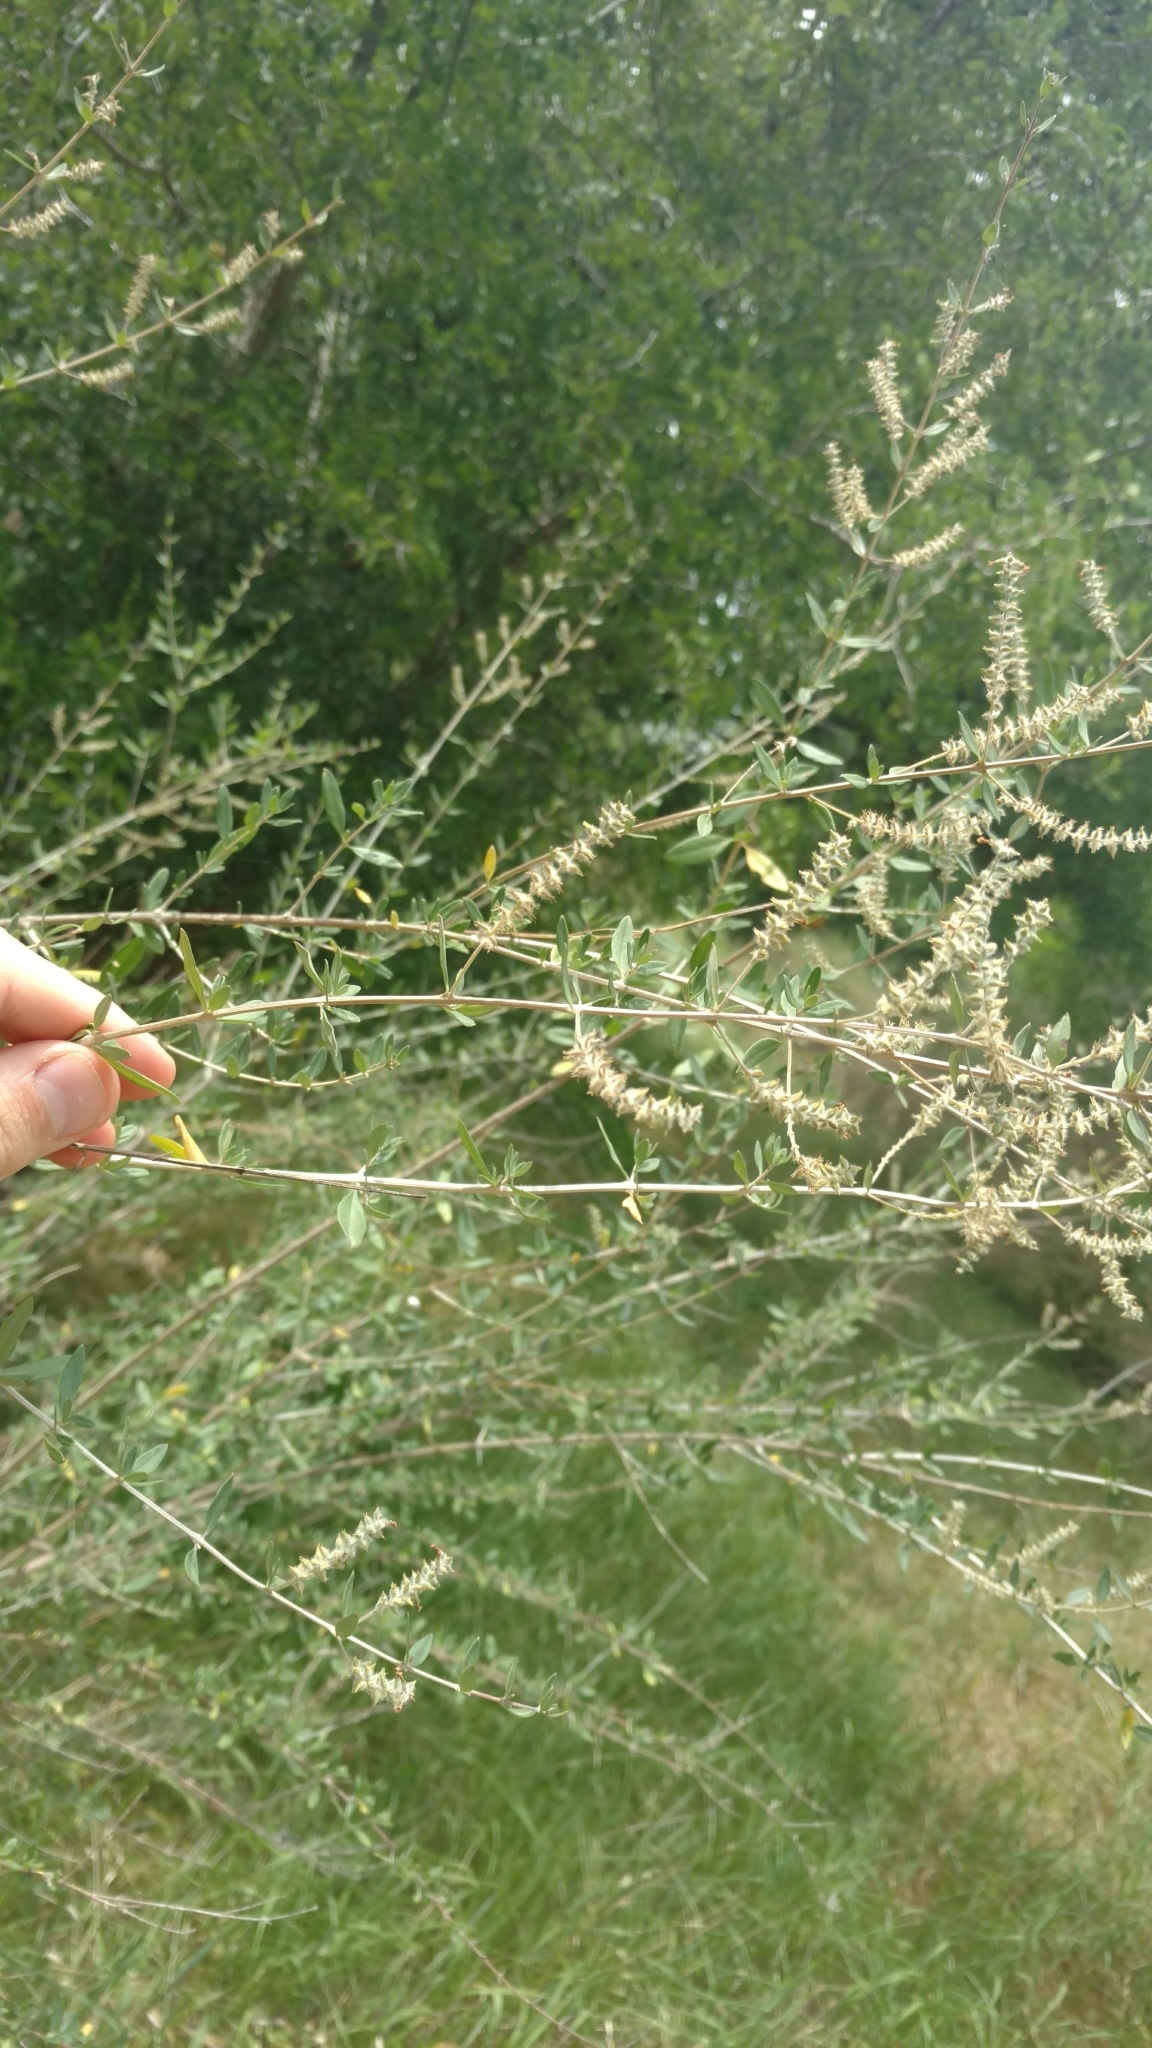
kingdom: Plantae
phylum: Tracheophyta
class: Magnoliopsida
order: Lamiales
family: Verbenaceae
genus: Aloysia
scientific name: Aloysia gratissima
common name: Common bee-brush
